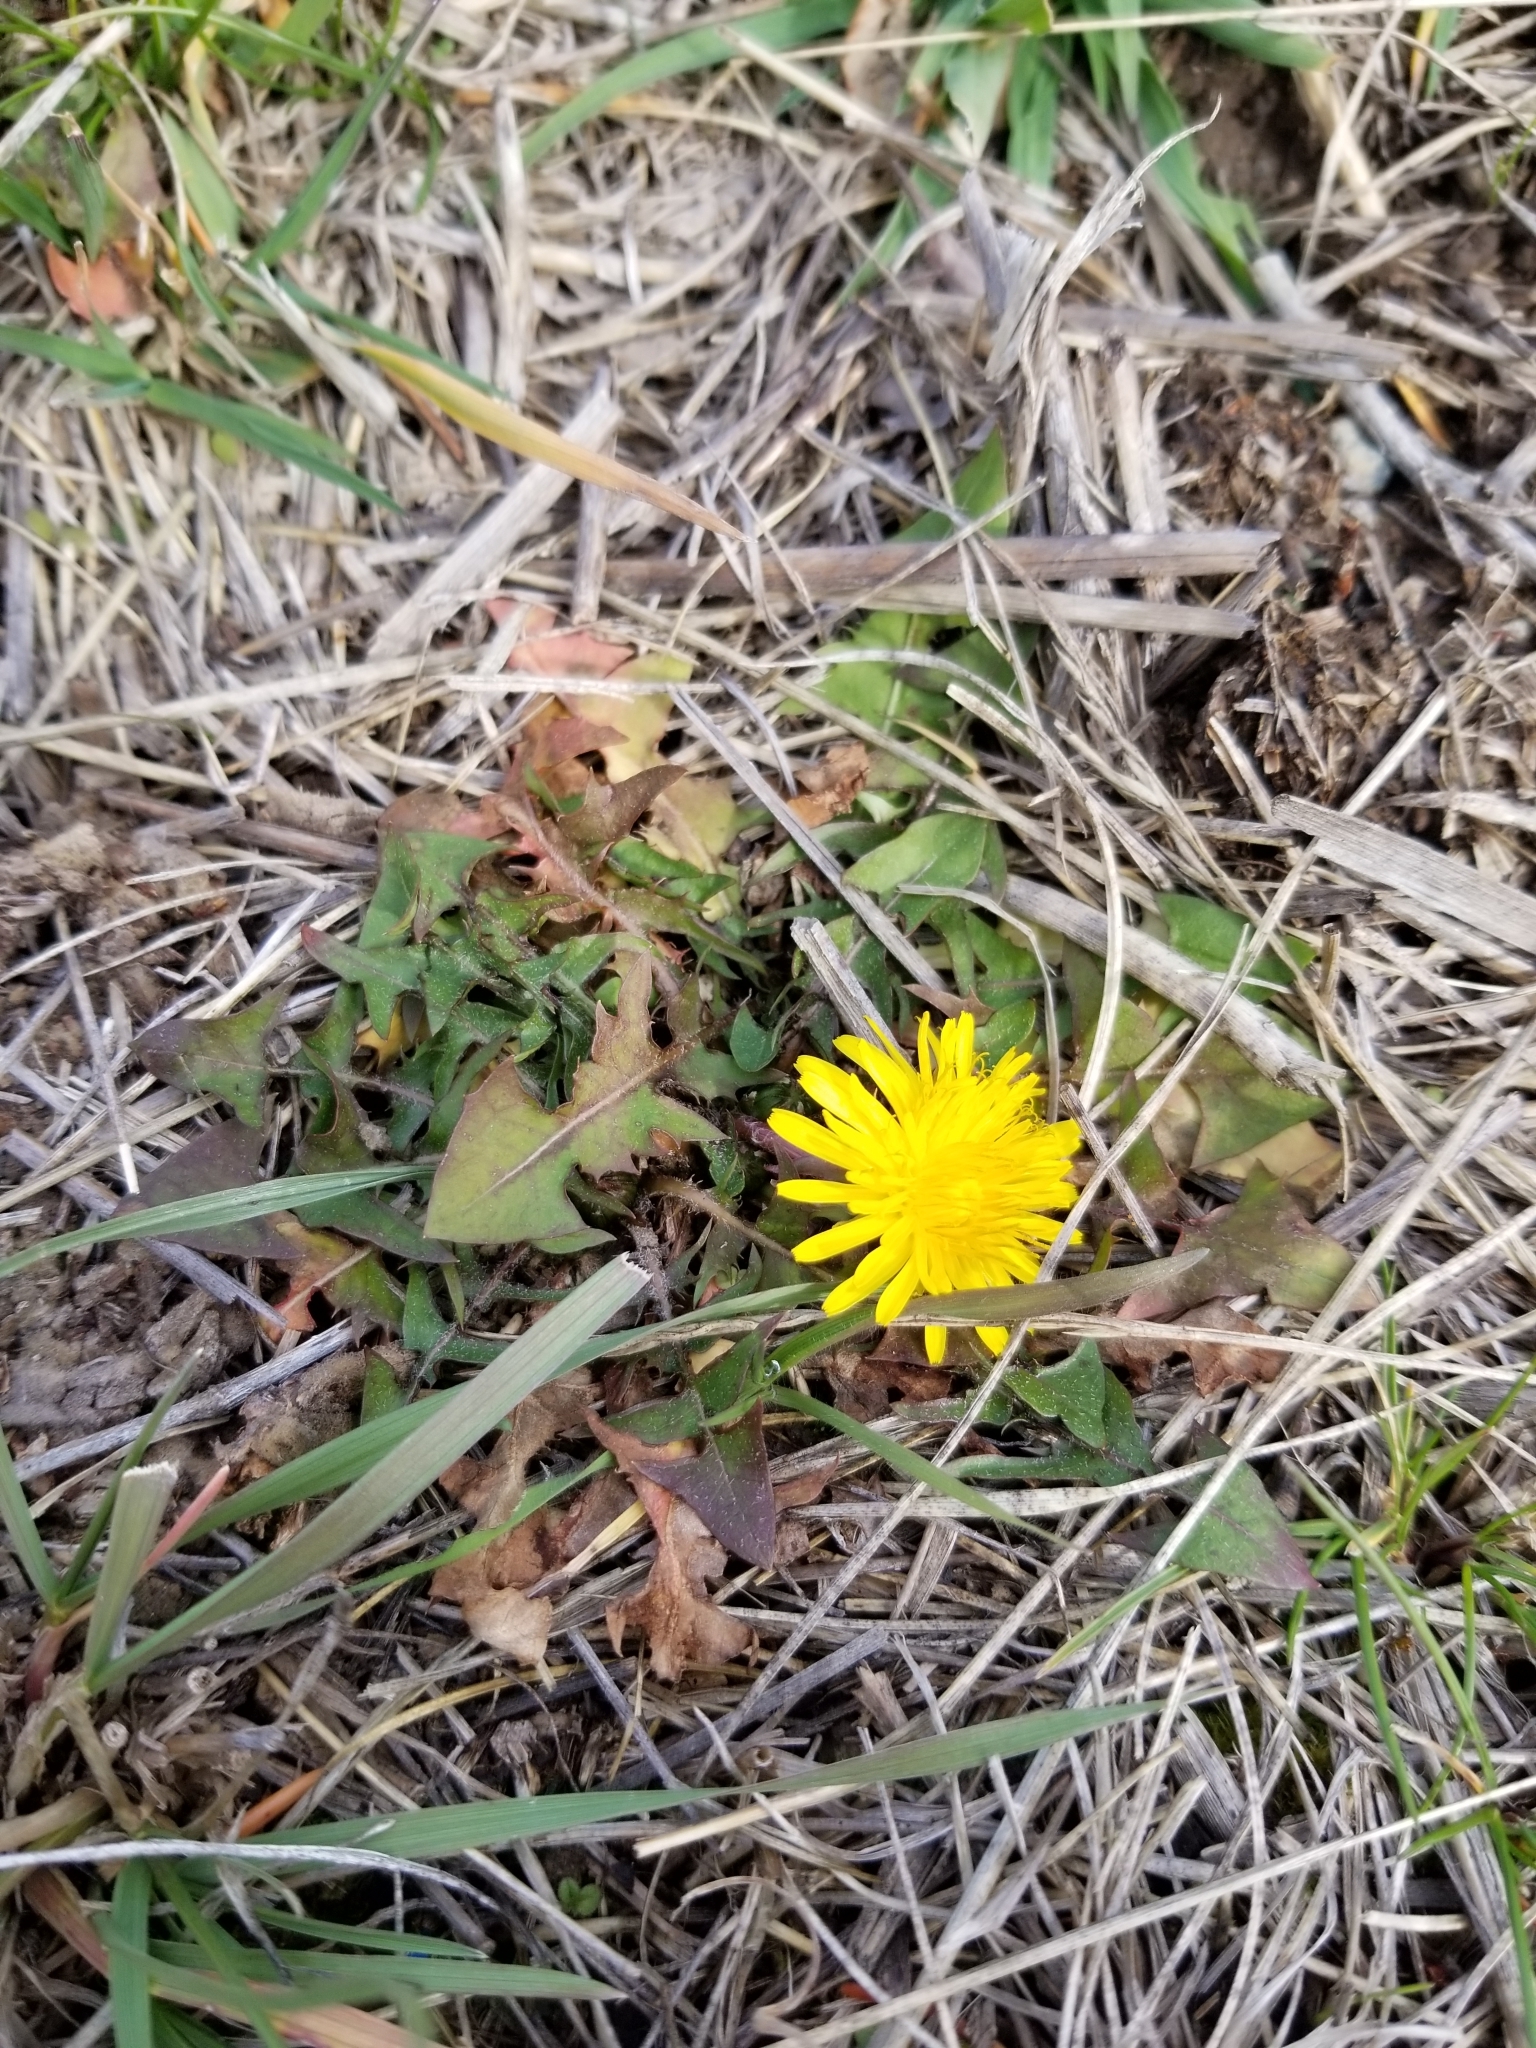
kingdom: Plantae
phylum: Tracheophyta
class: Magnoliopsida
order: Asterales
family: Asteraceae
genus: Taraxacum
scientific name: Taraxacum officinale
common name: Common dandelion
